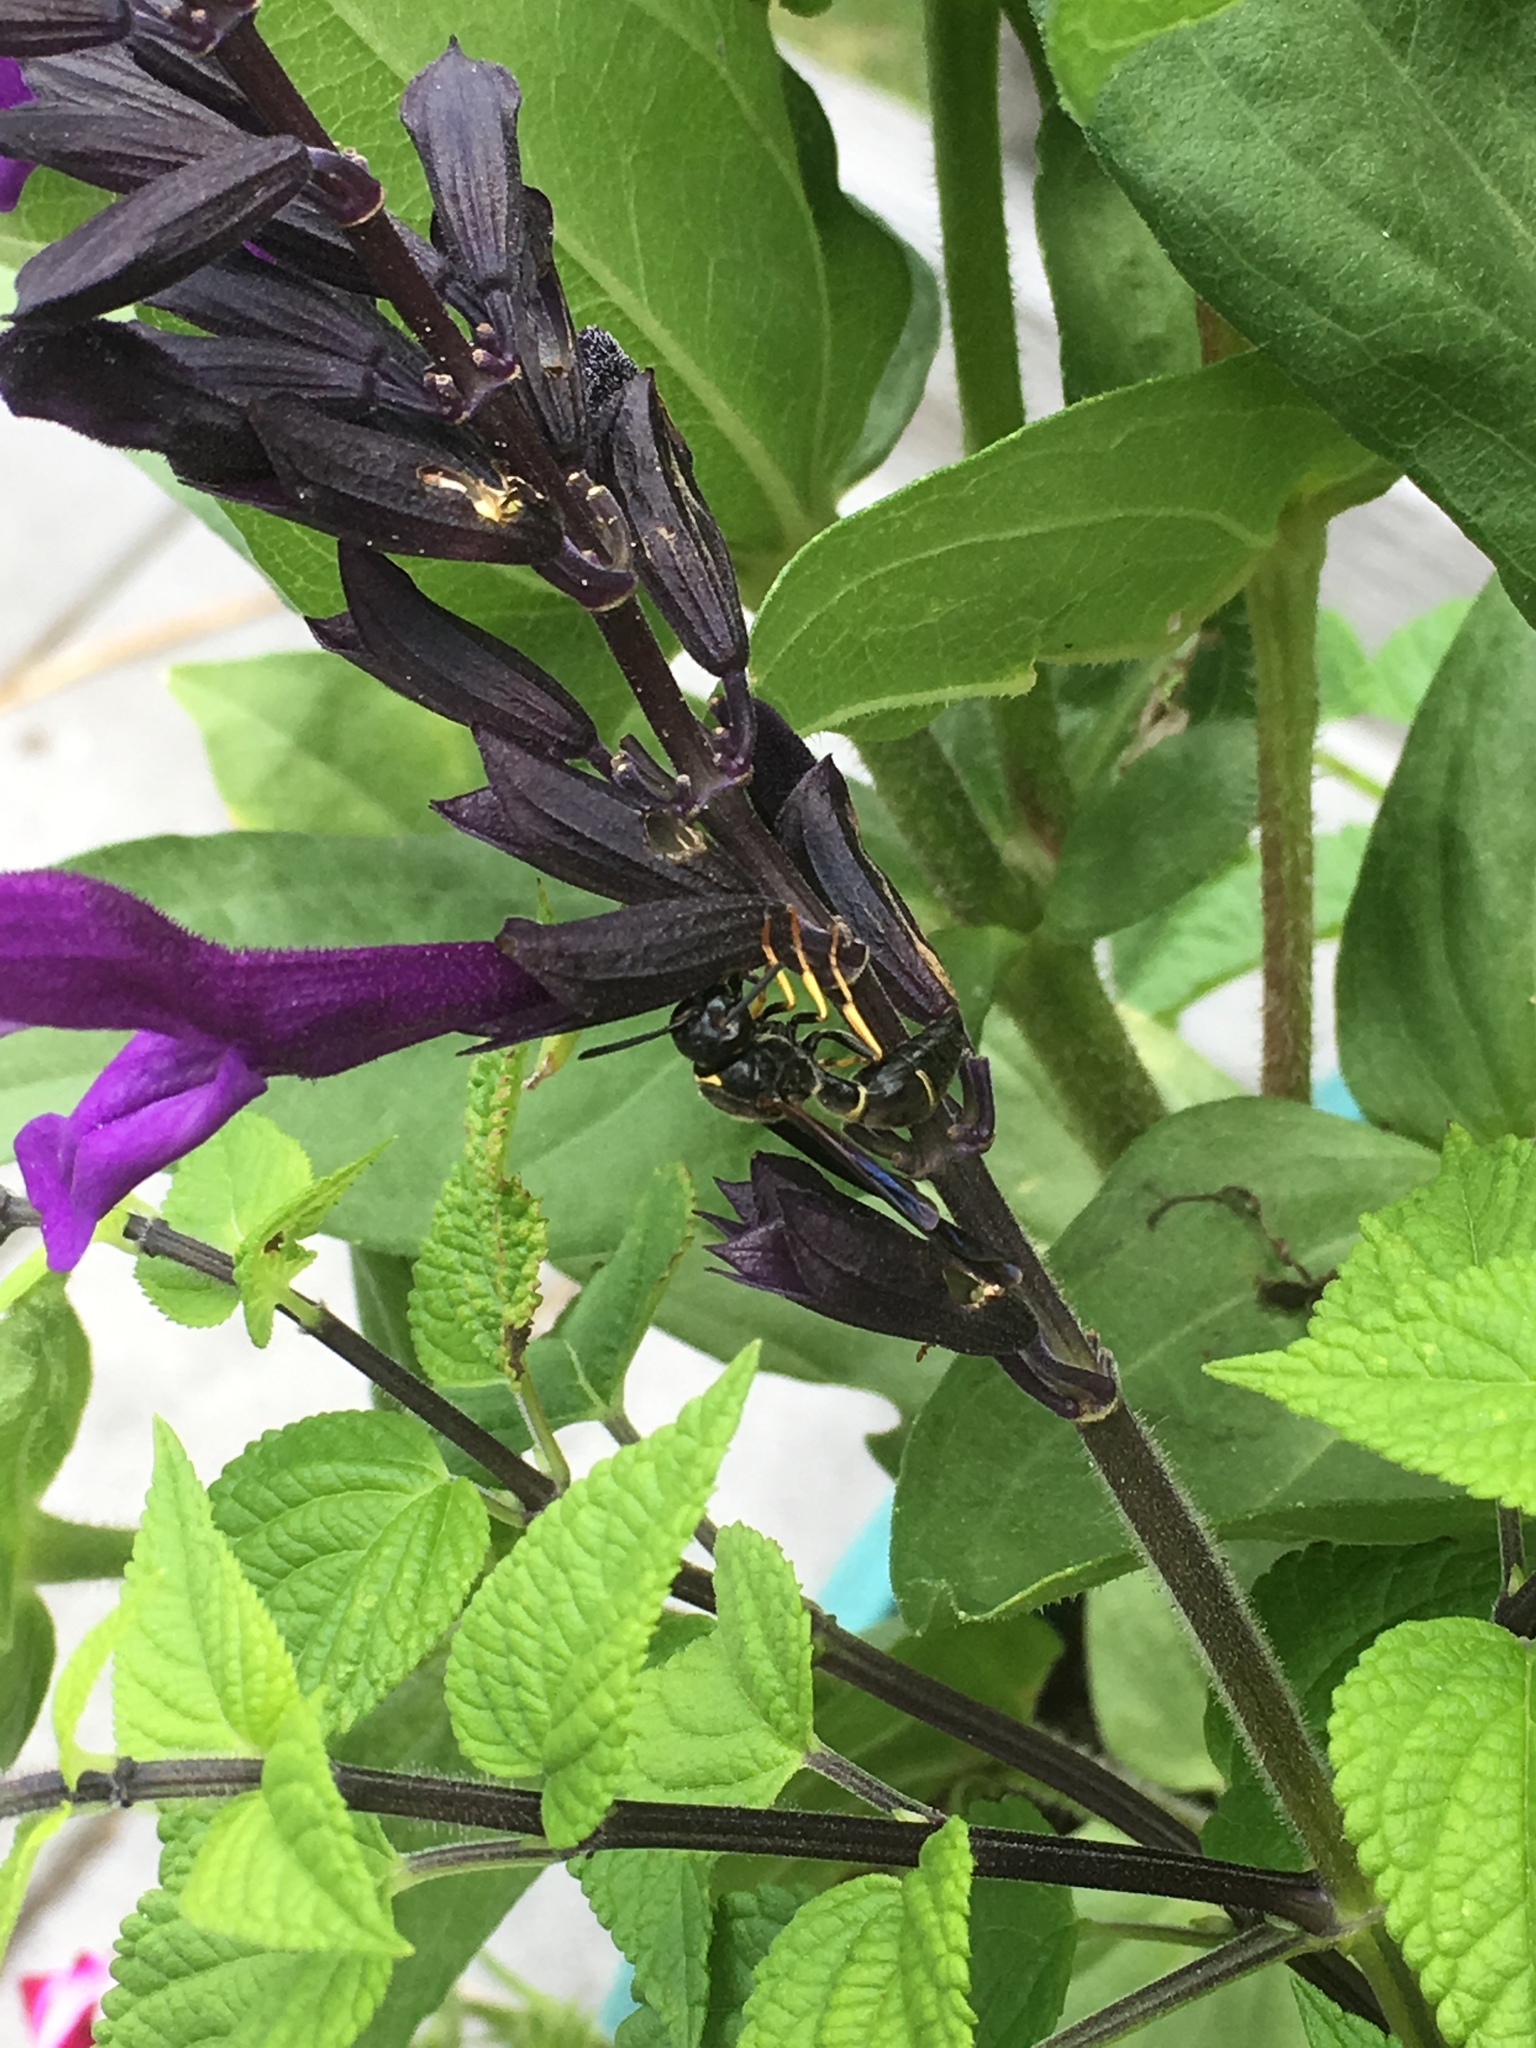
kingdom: Animalia
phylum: Arthropoda
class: Insecta
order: Hymenoptera
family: Eumenidae
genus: Parazumia
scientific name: Parazumia symmorpha
